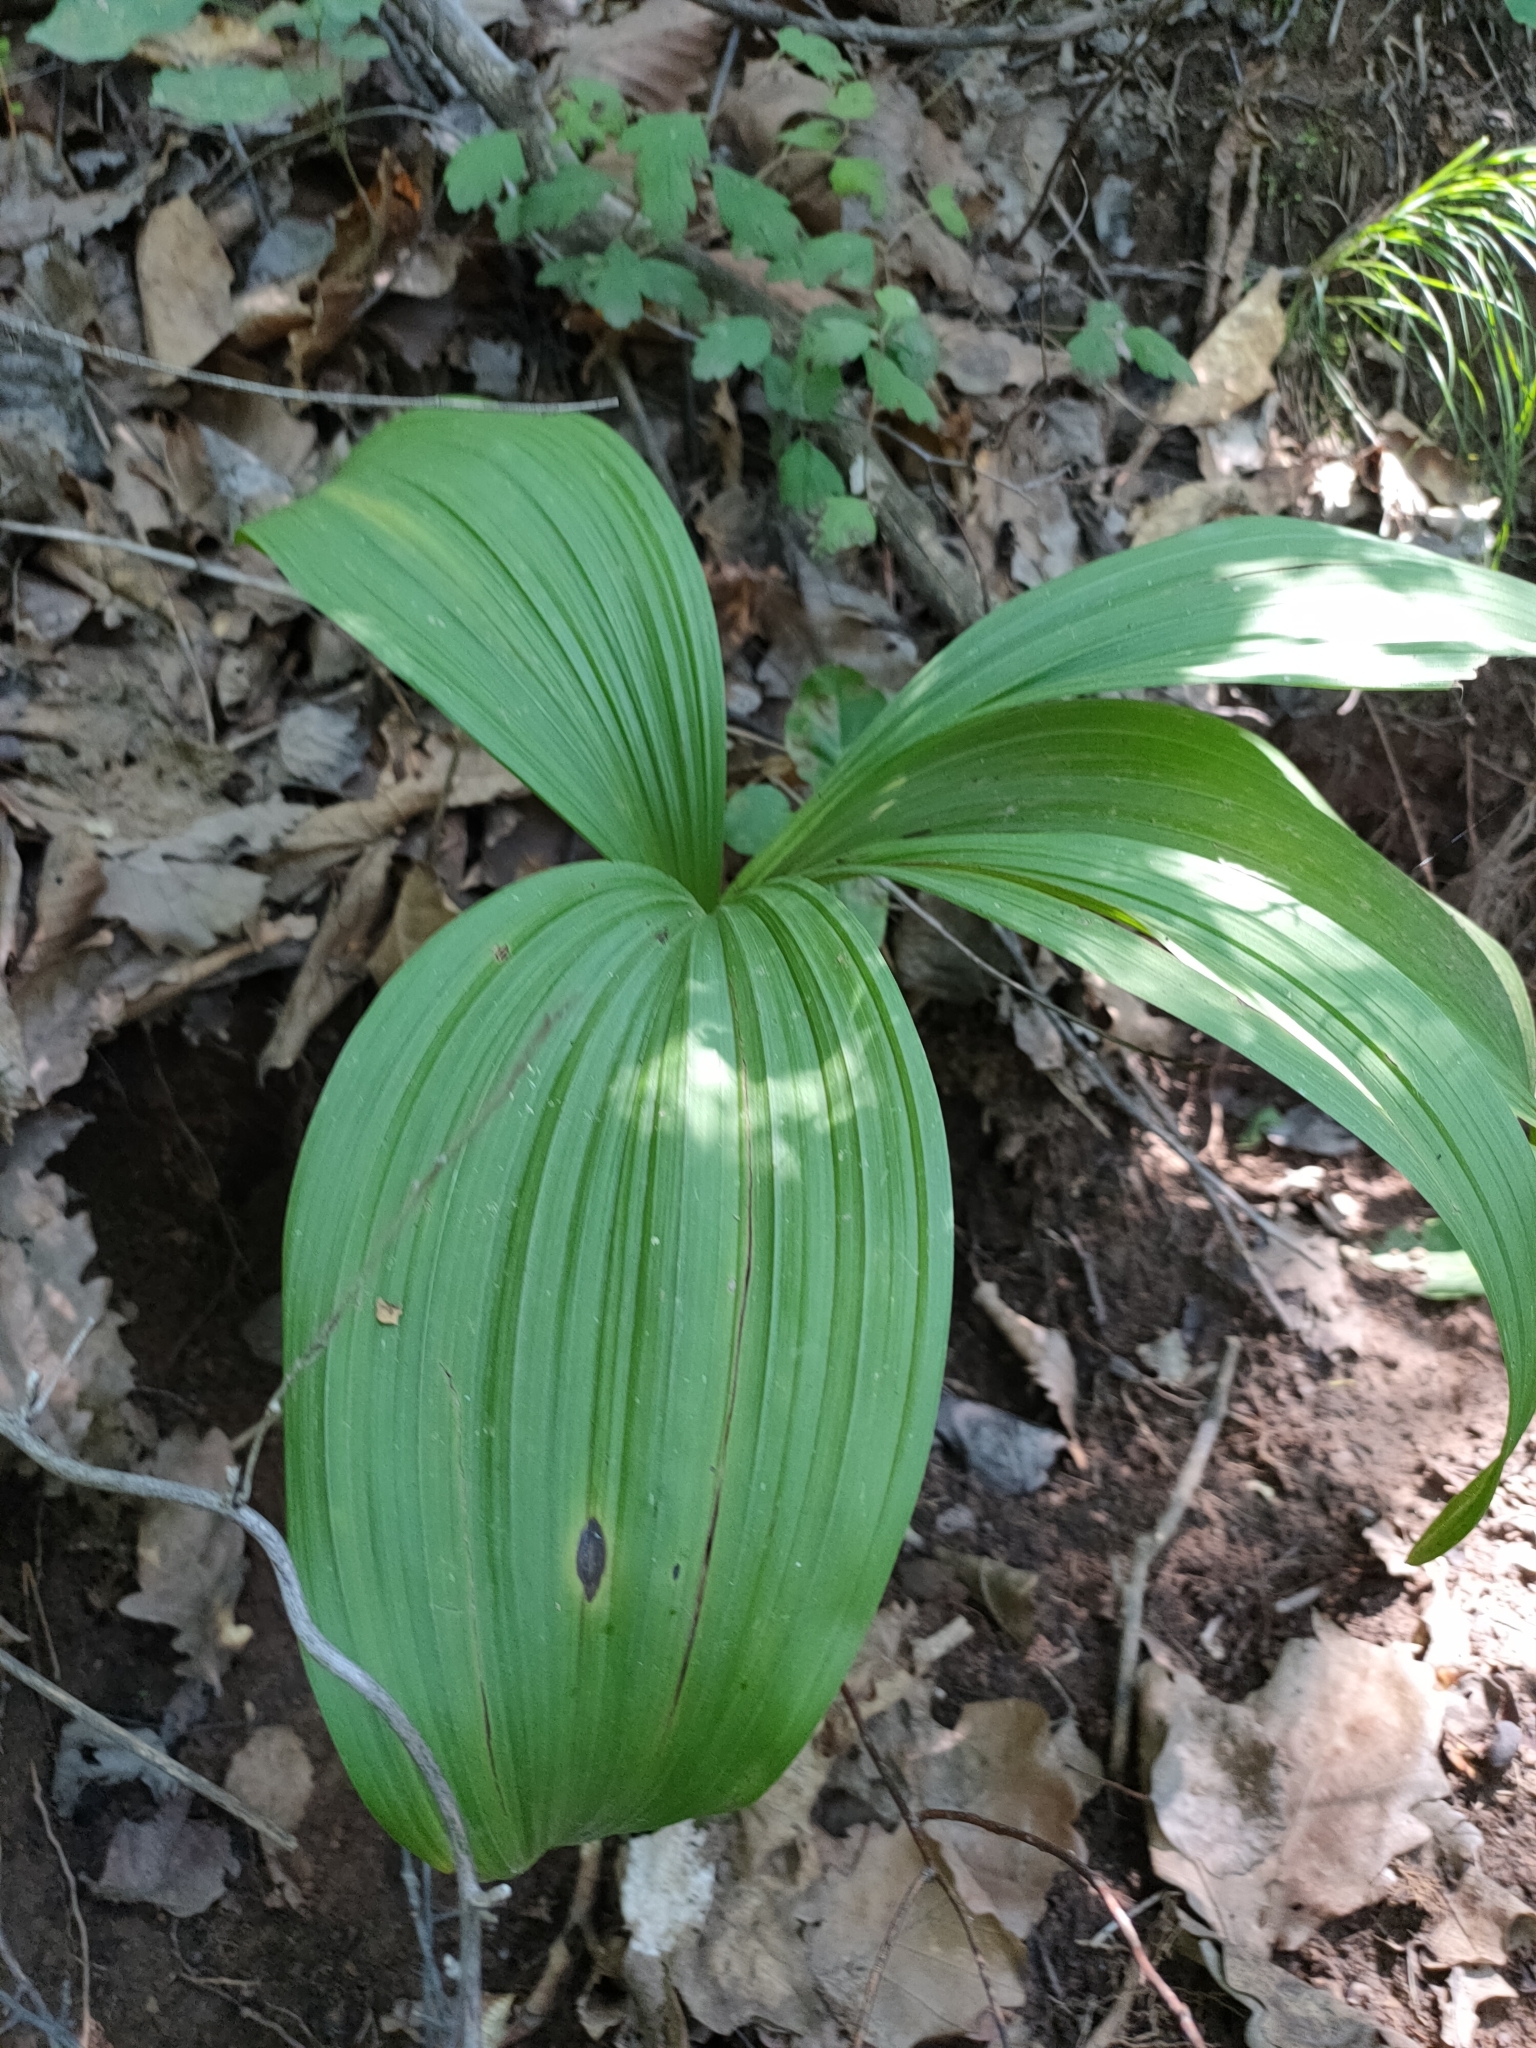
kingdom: Plantae
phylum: Tracheophyta
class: Liliopsida
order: Liliales
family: Melanthiaceae
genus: Veratrum
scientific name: Veratrum nigrum
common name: Black veratrum
